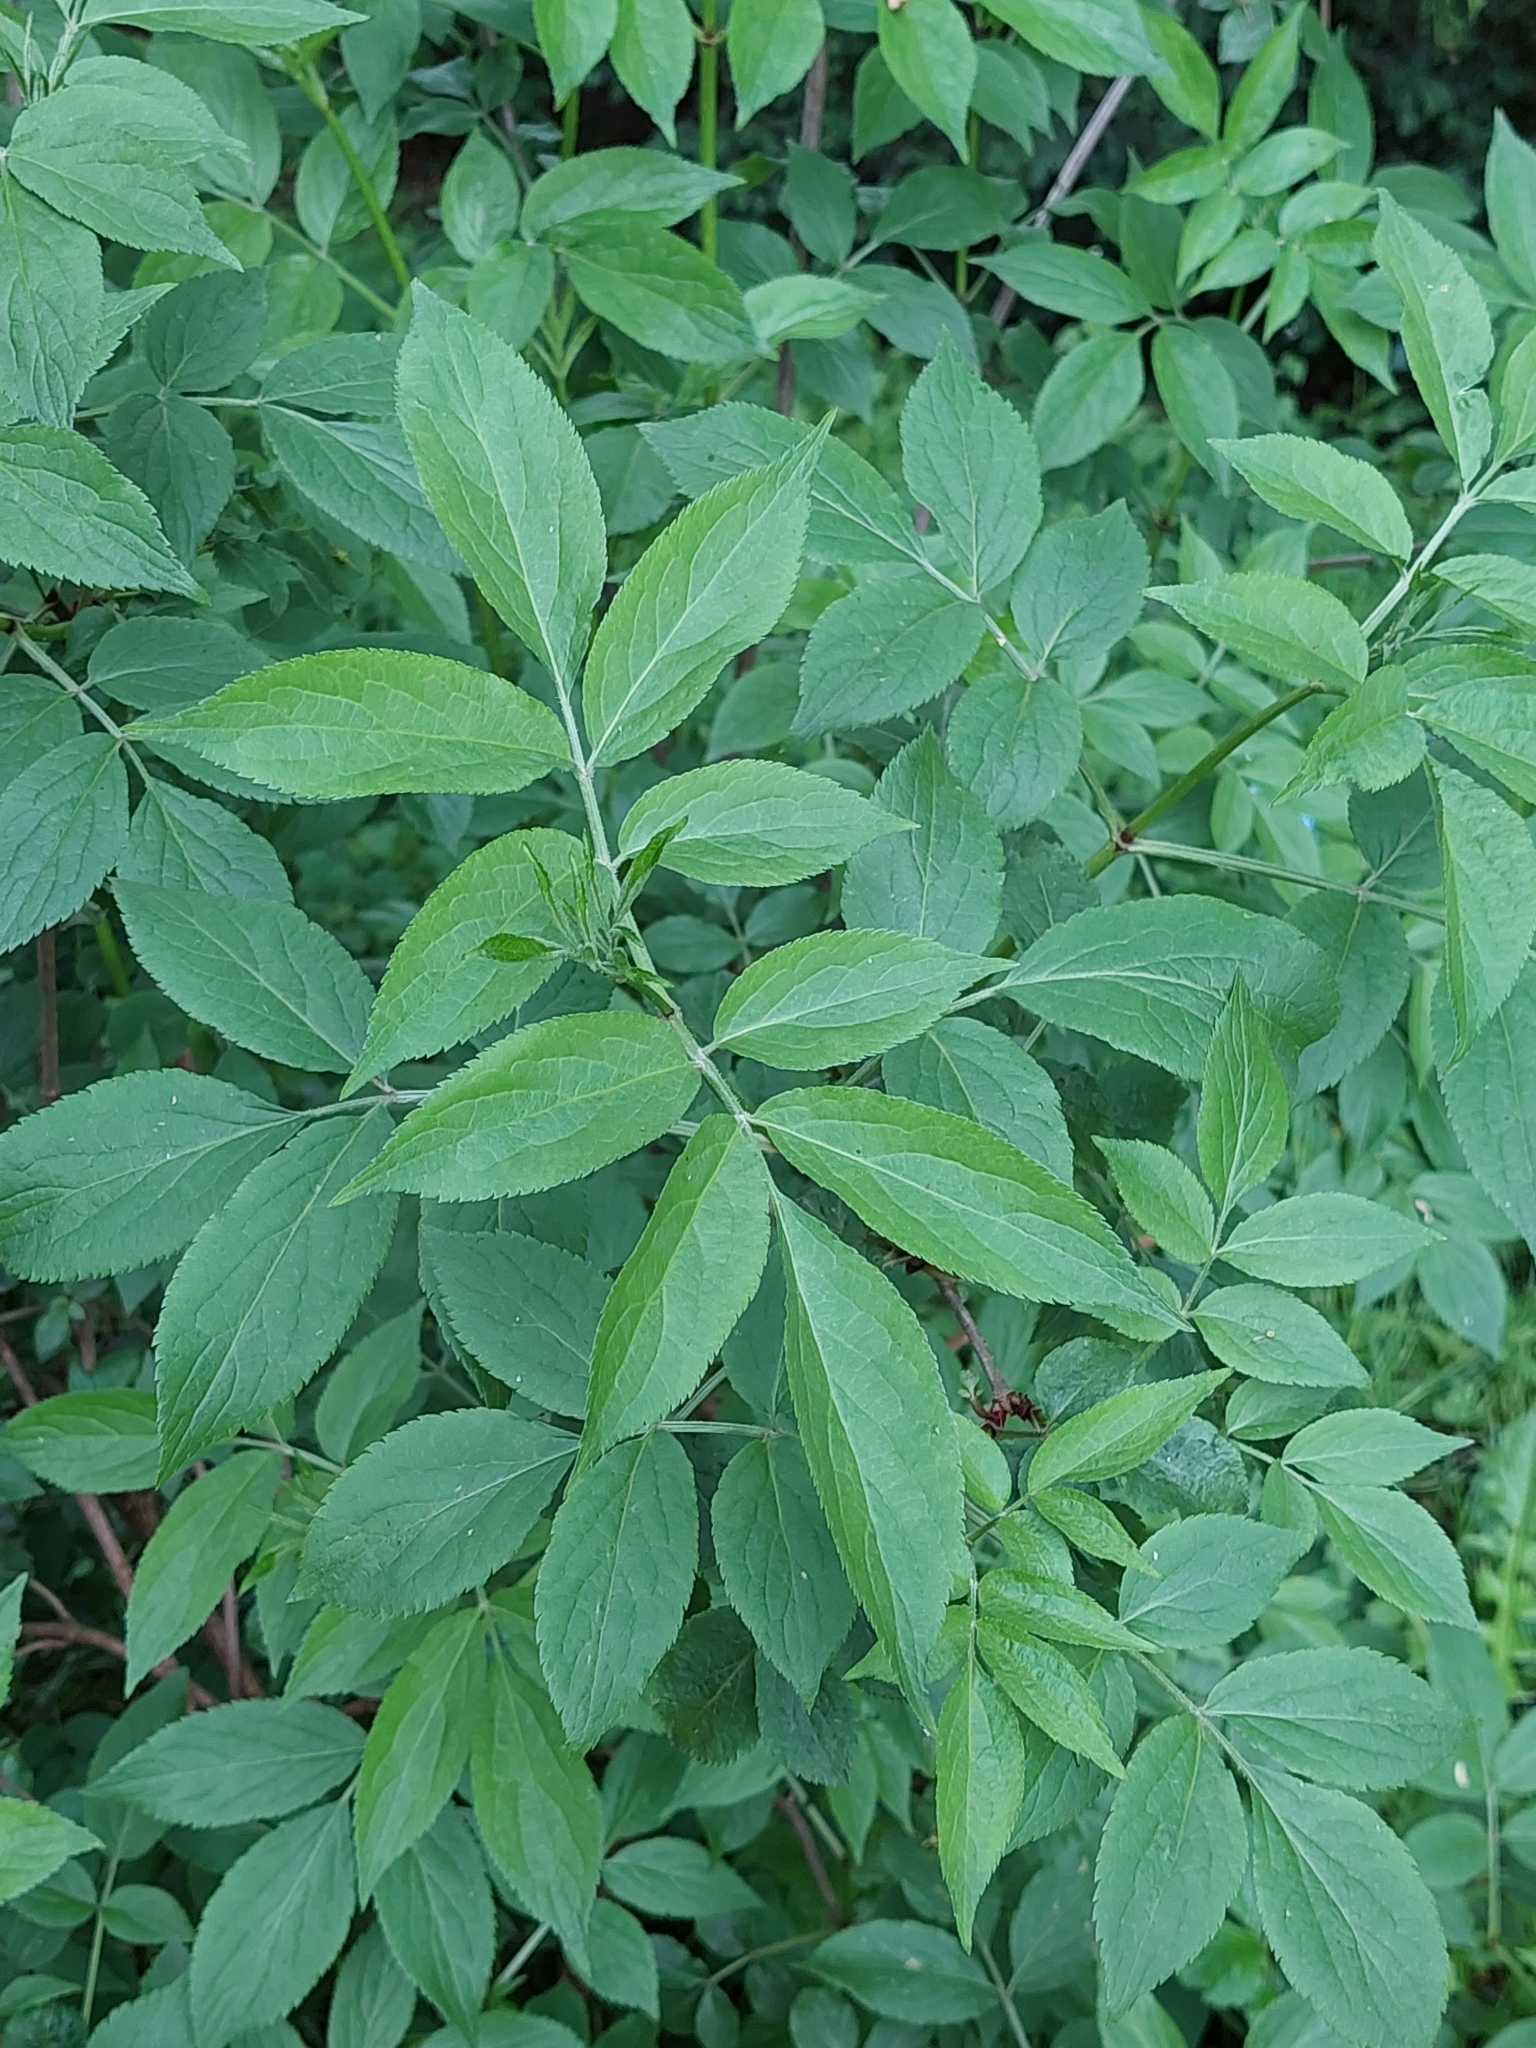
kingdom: Plantae
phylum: Tracheophyta
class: Magnoliopsida
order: Dipsacales
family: Viburnaceae
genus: Sambucus
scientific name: Sambucus nigra
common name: Elder
